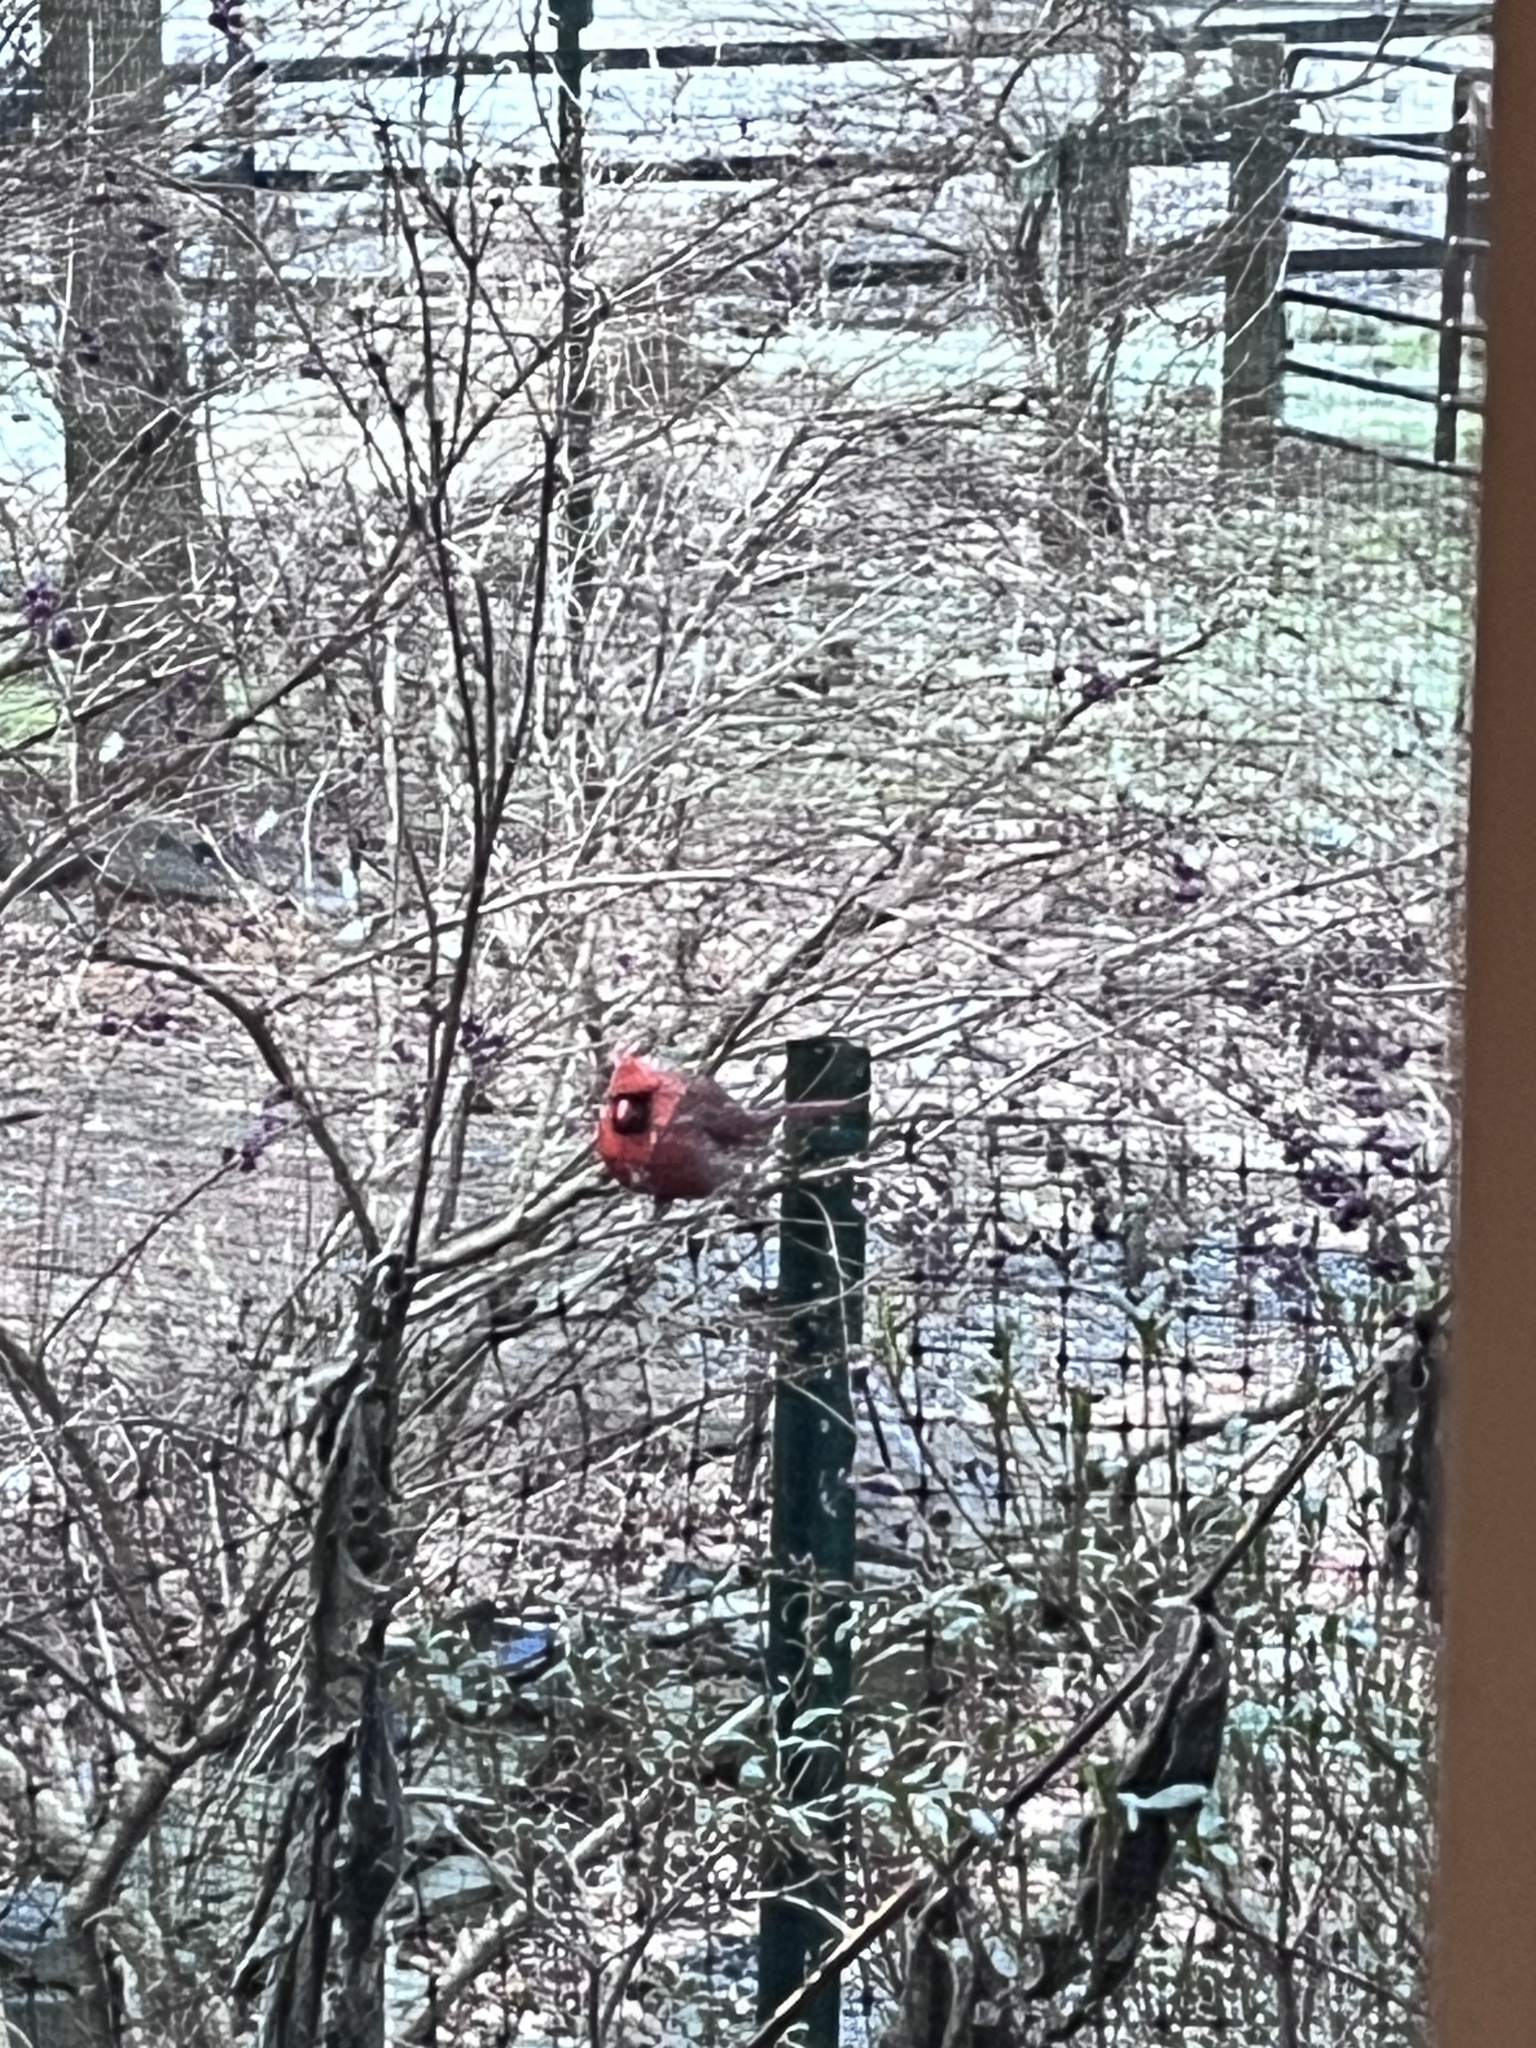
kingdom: Animalia
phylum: Chordata
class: Aves
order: Passeriformes
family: Cardinalidae
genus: Cardinalis
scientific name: Cardinalis cardinalis
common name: Northern cardinal
